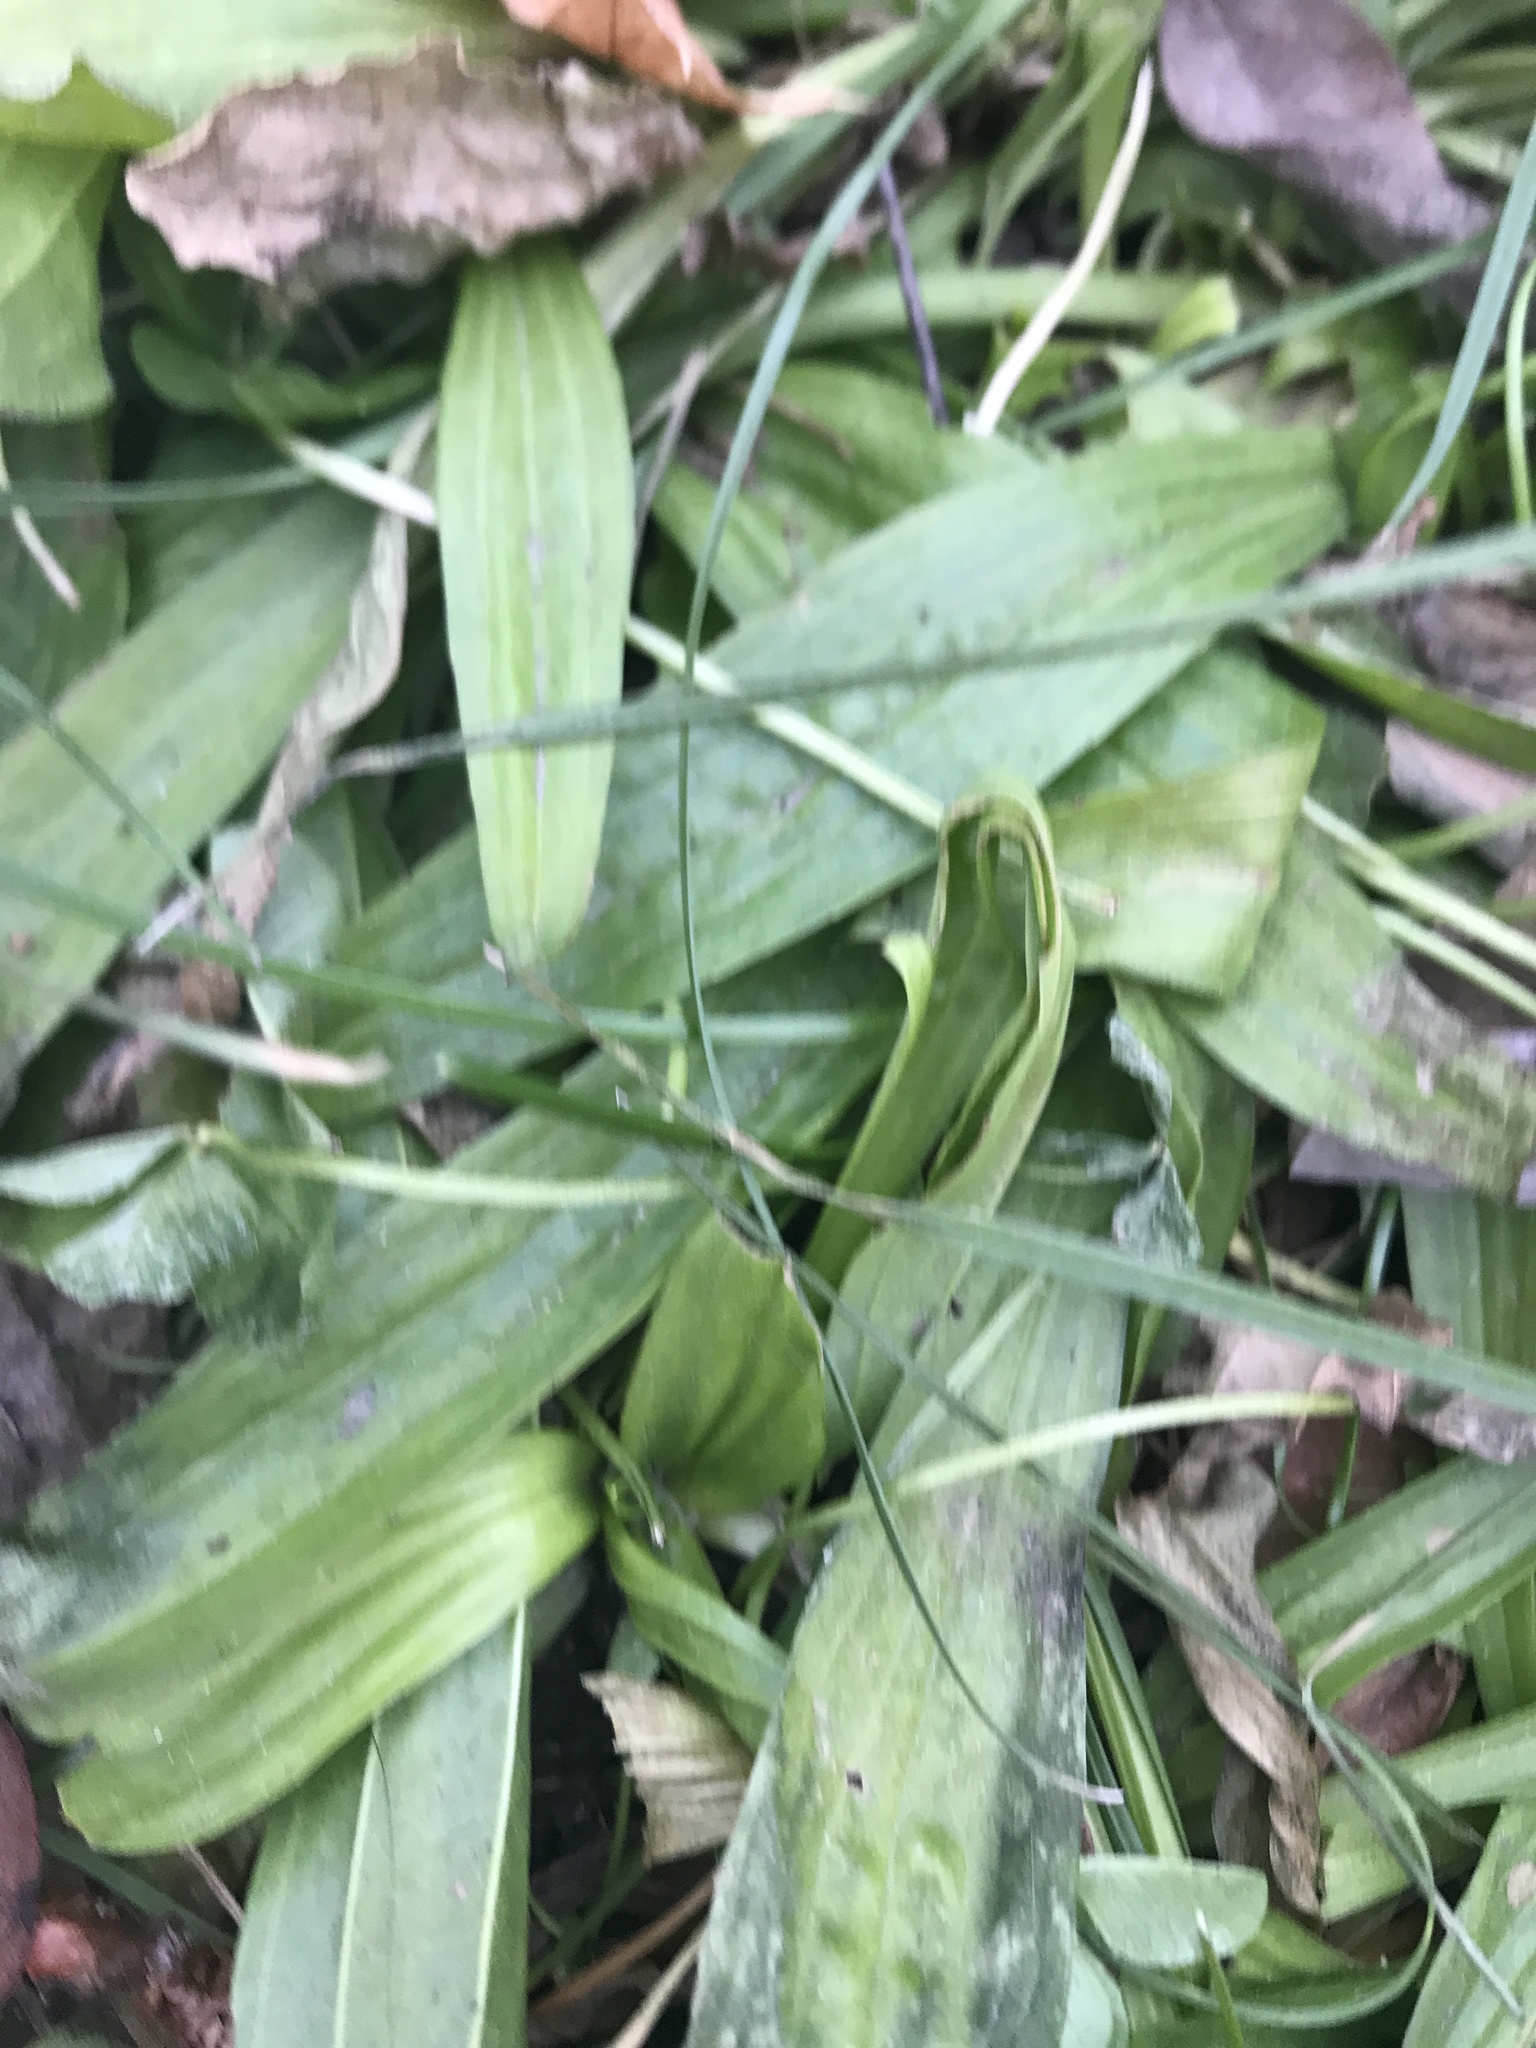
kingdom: Plantae
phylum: Tracheophyta
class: Magnoliopsida
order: Lamiales
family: Plantaginaceae
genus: Plantago
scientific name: Plantago lanceolata
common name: Ribwort plantain
